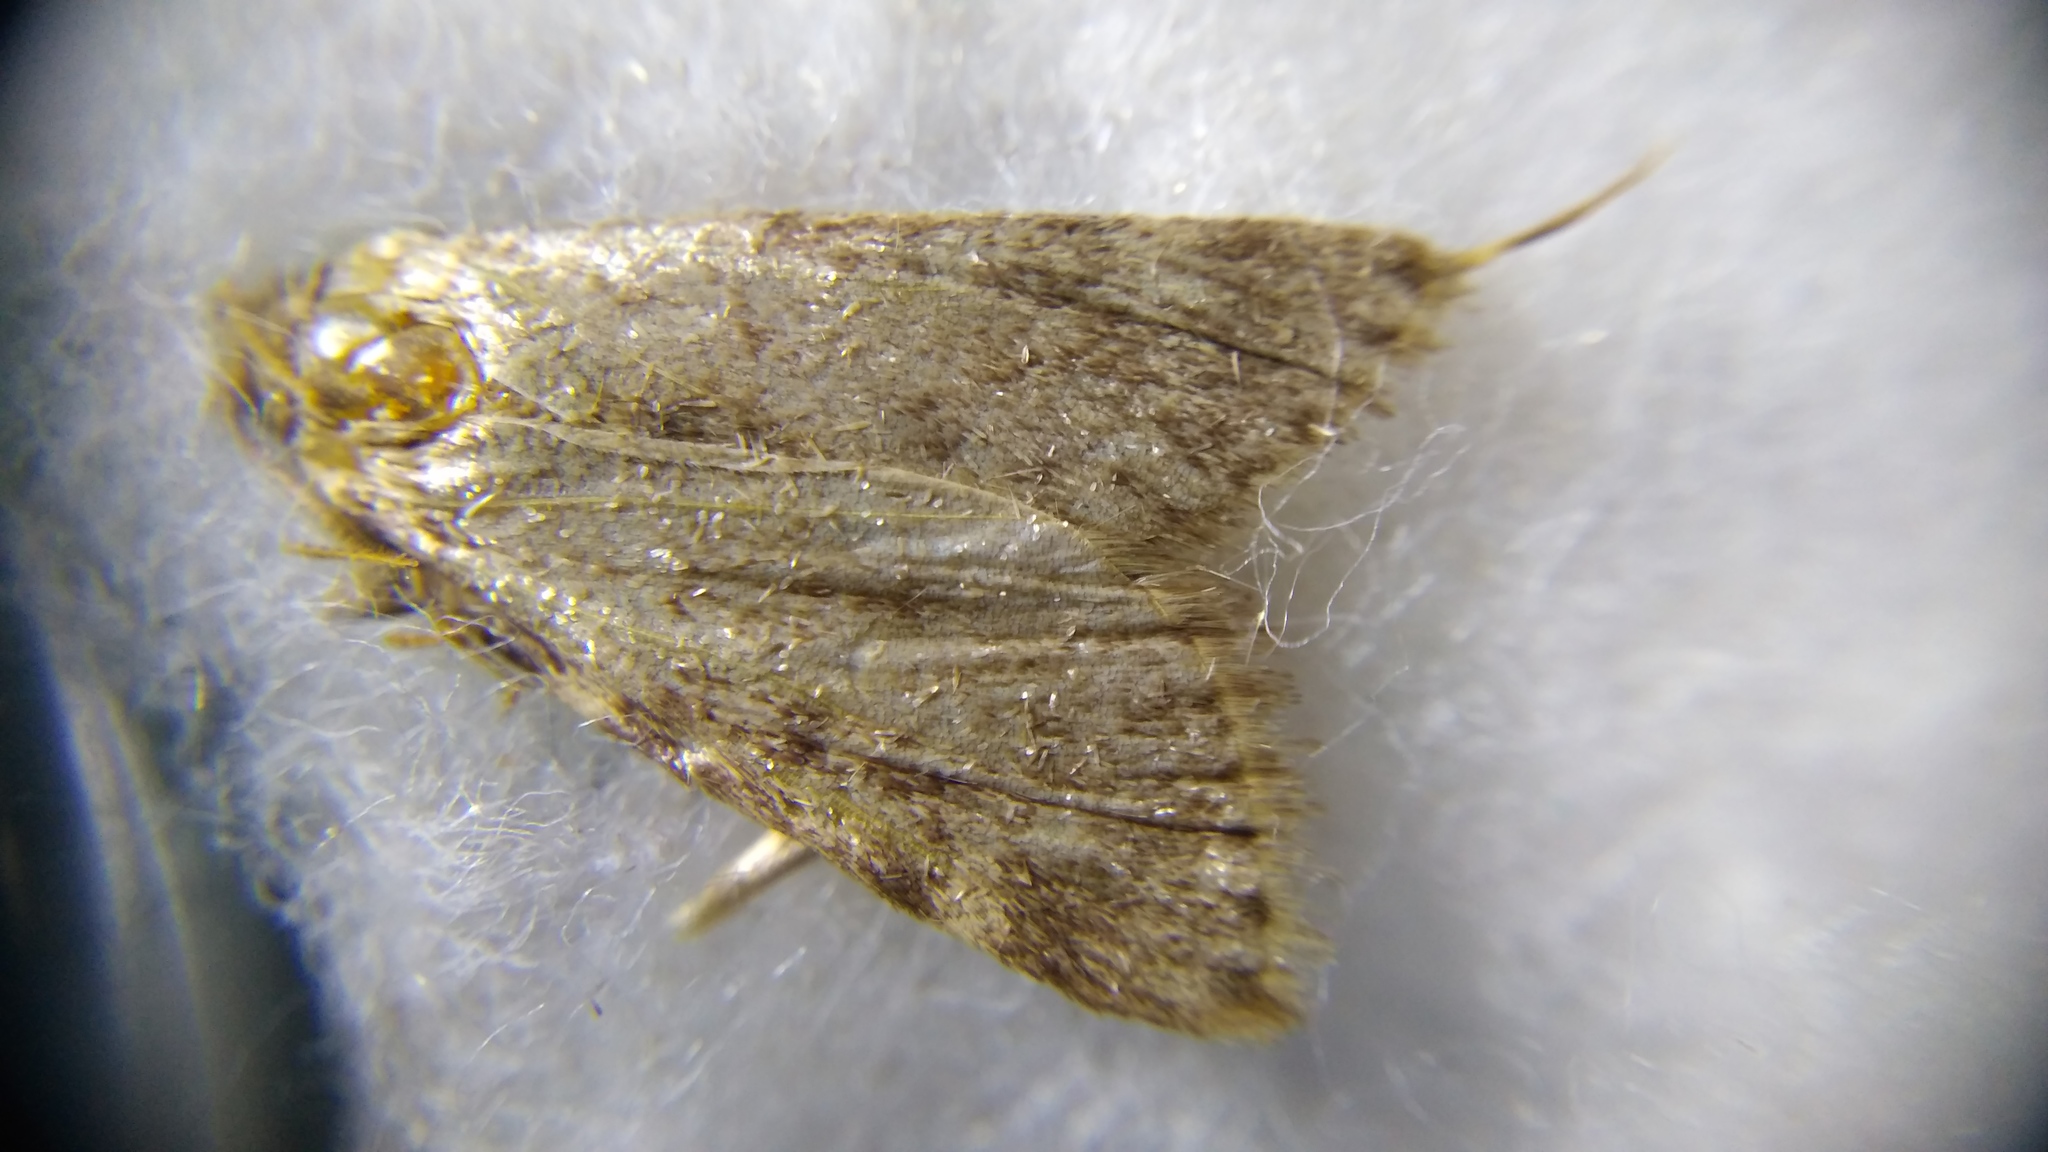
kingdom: Animalia
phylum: Arthropoda
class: Insecta
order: Lepidoptera
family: Pyralidae
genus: Aglossa
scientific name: Aglossa pinguinalis
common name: Large tabby
